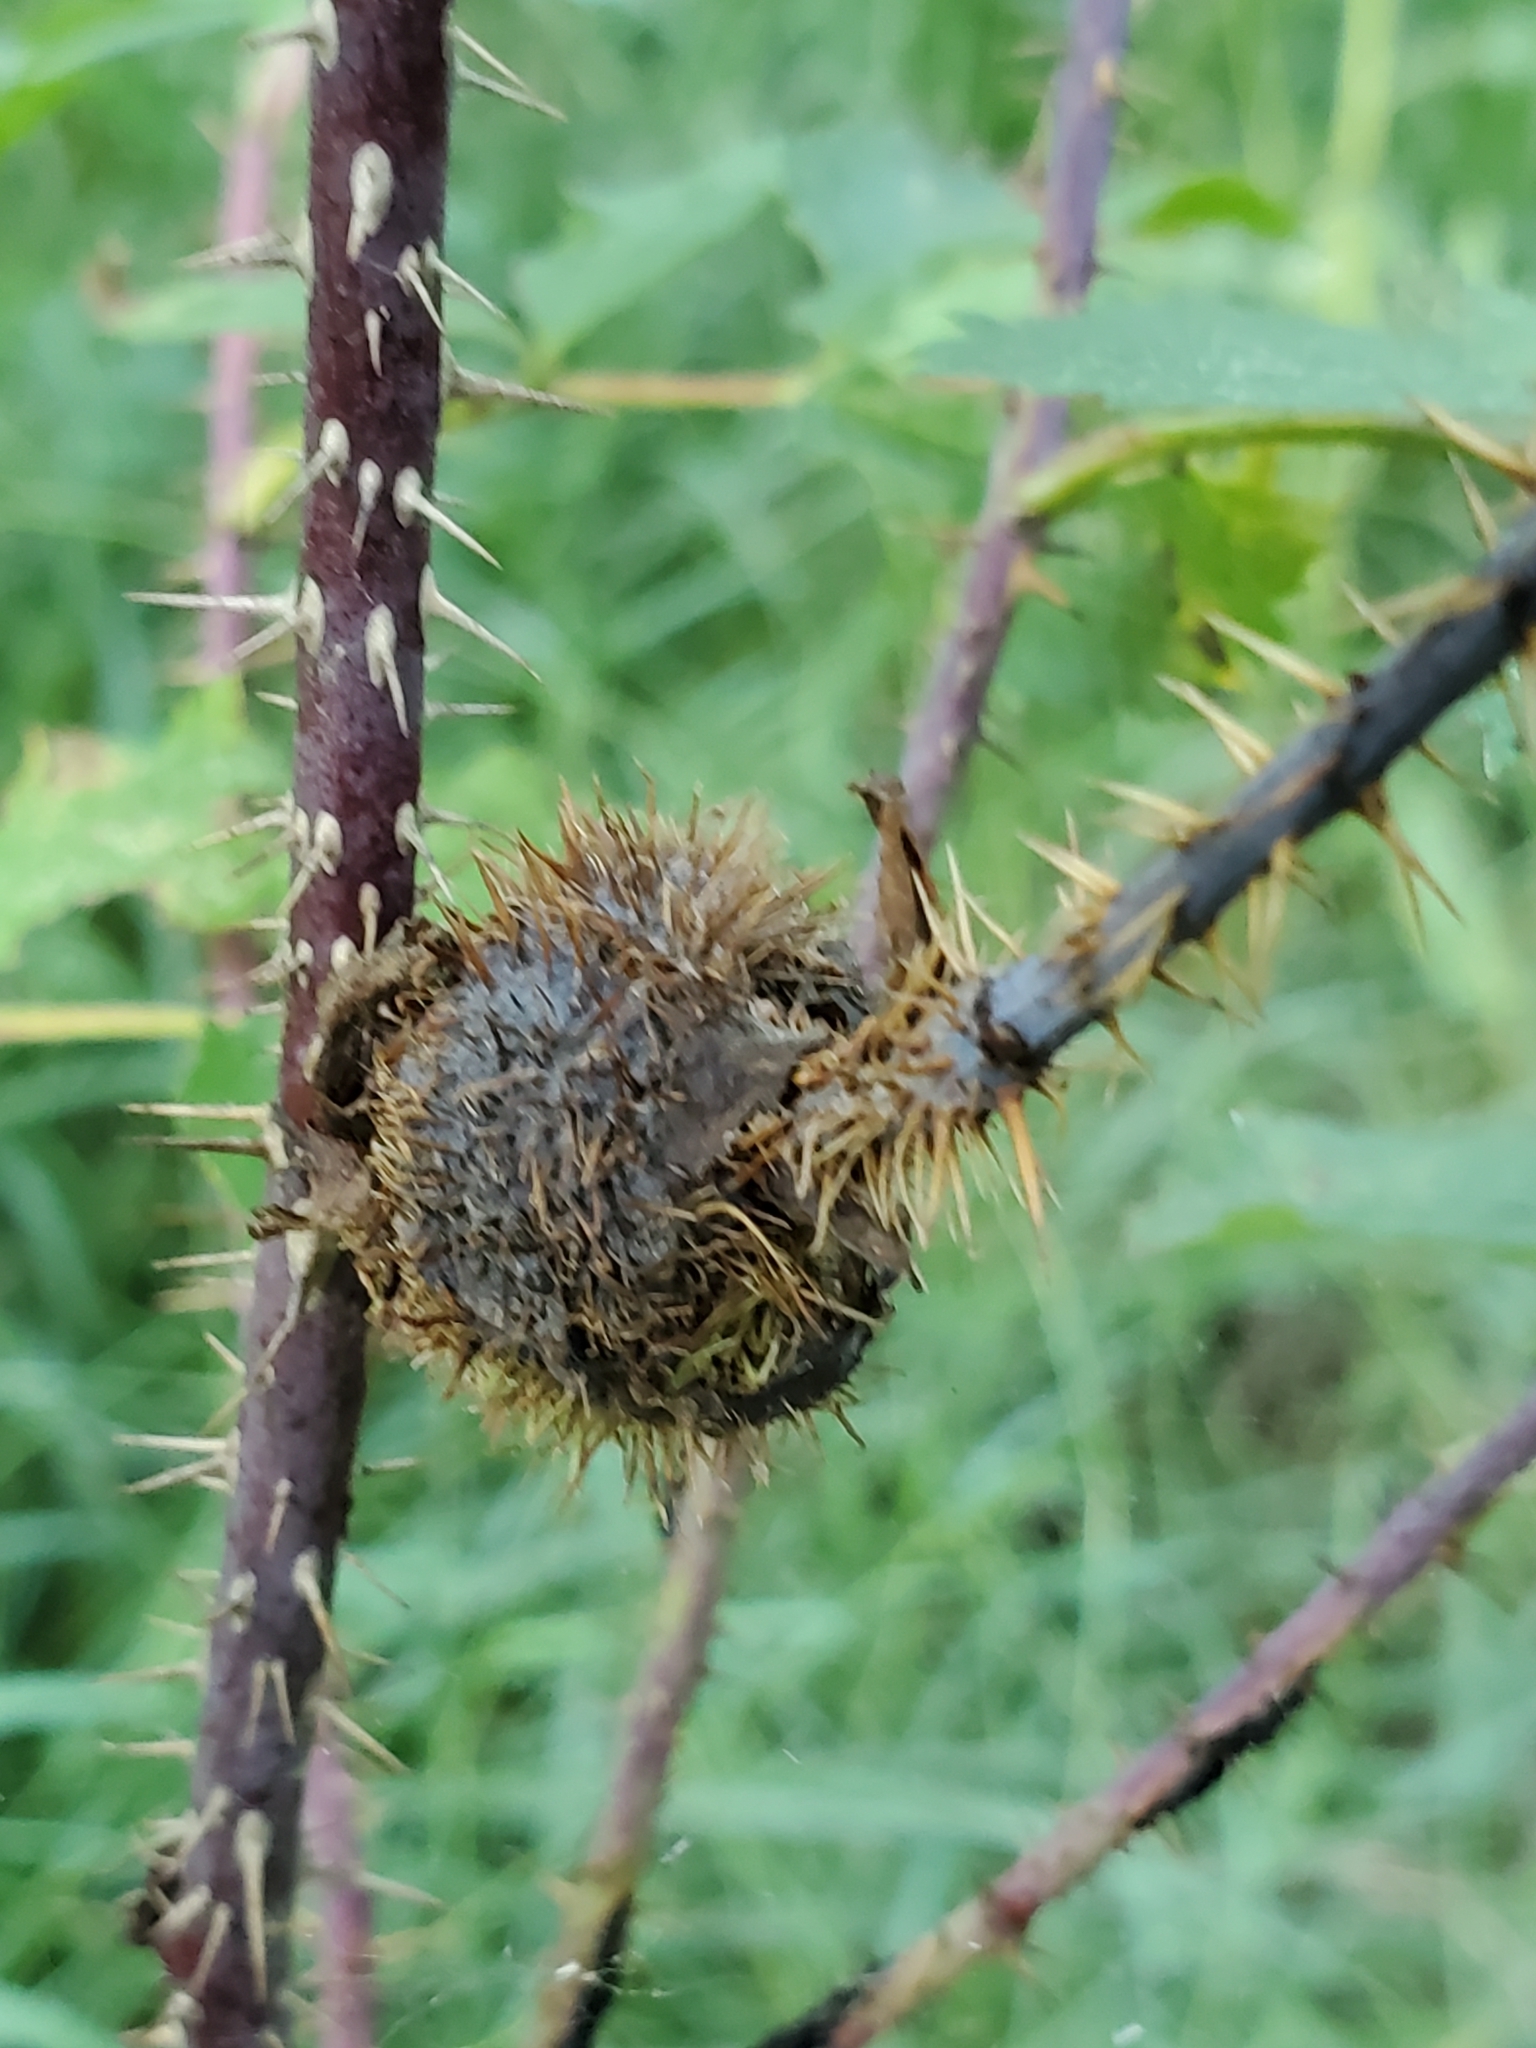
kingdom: Animalia
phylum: Arthropoda
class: Insecta
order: Hymenoptera
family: Cynipidae
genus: Diplolepis
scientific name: Diplolepis spinosa
